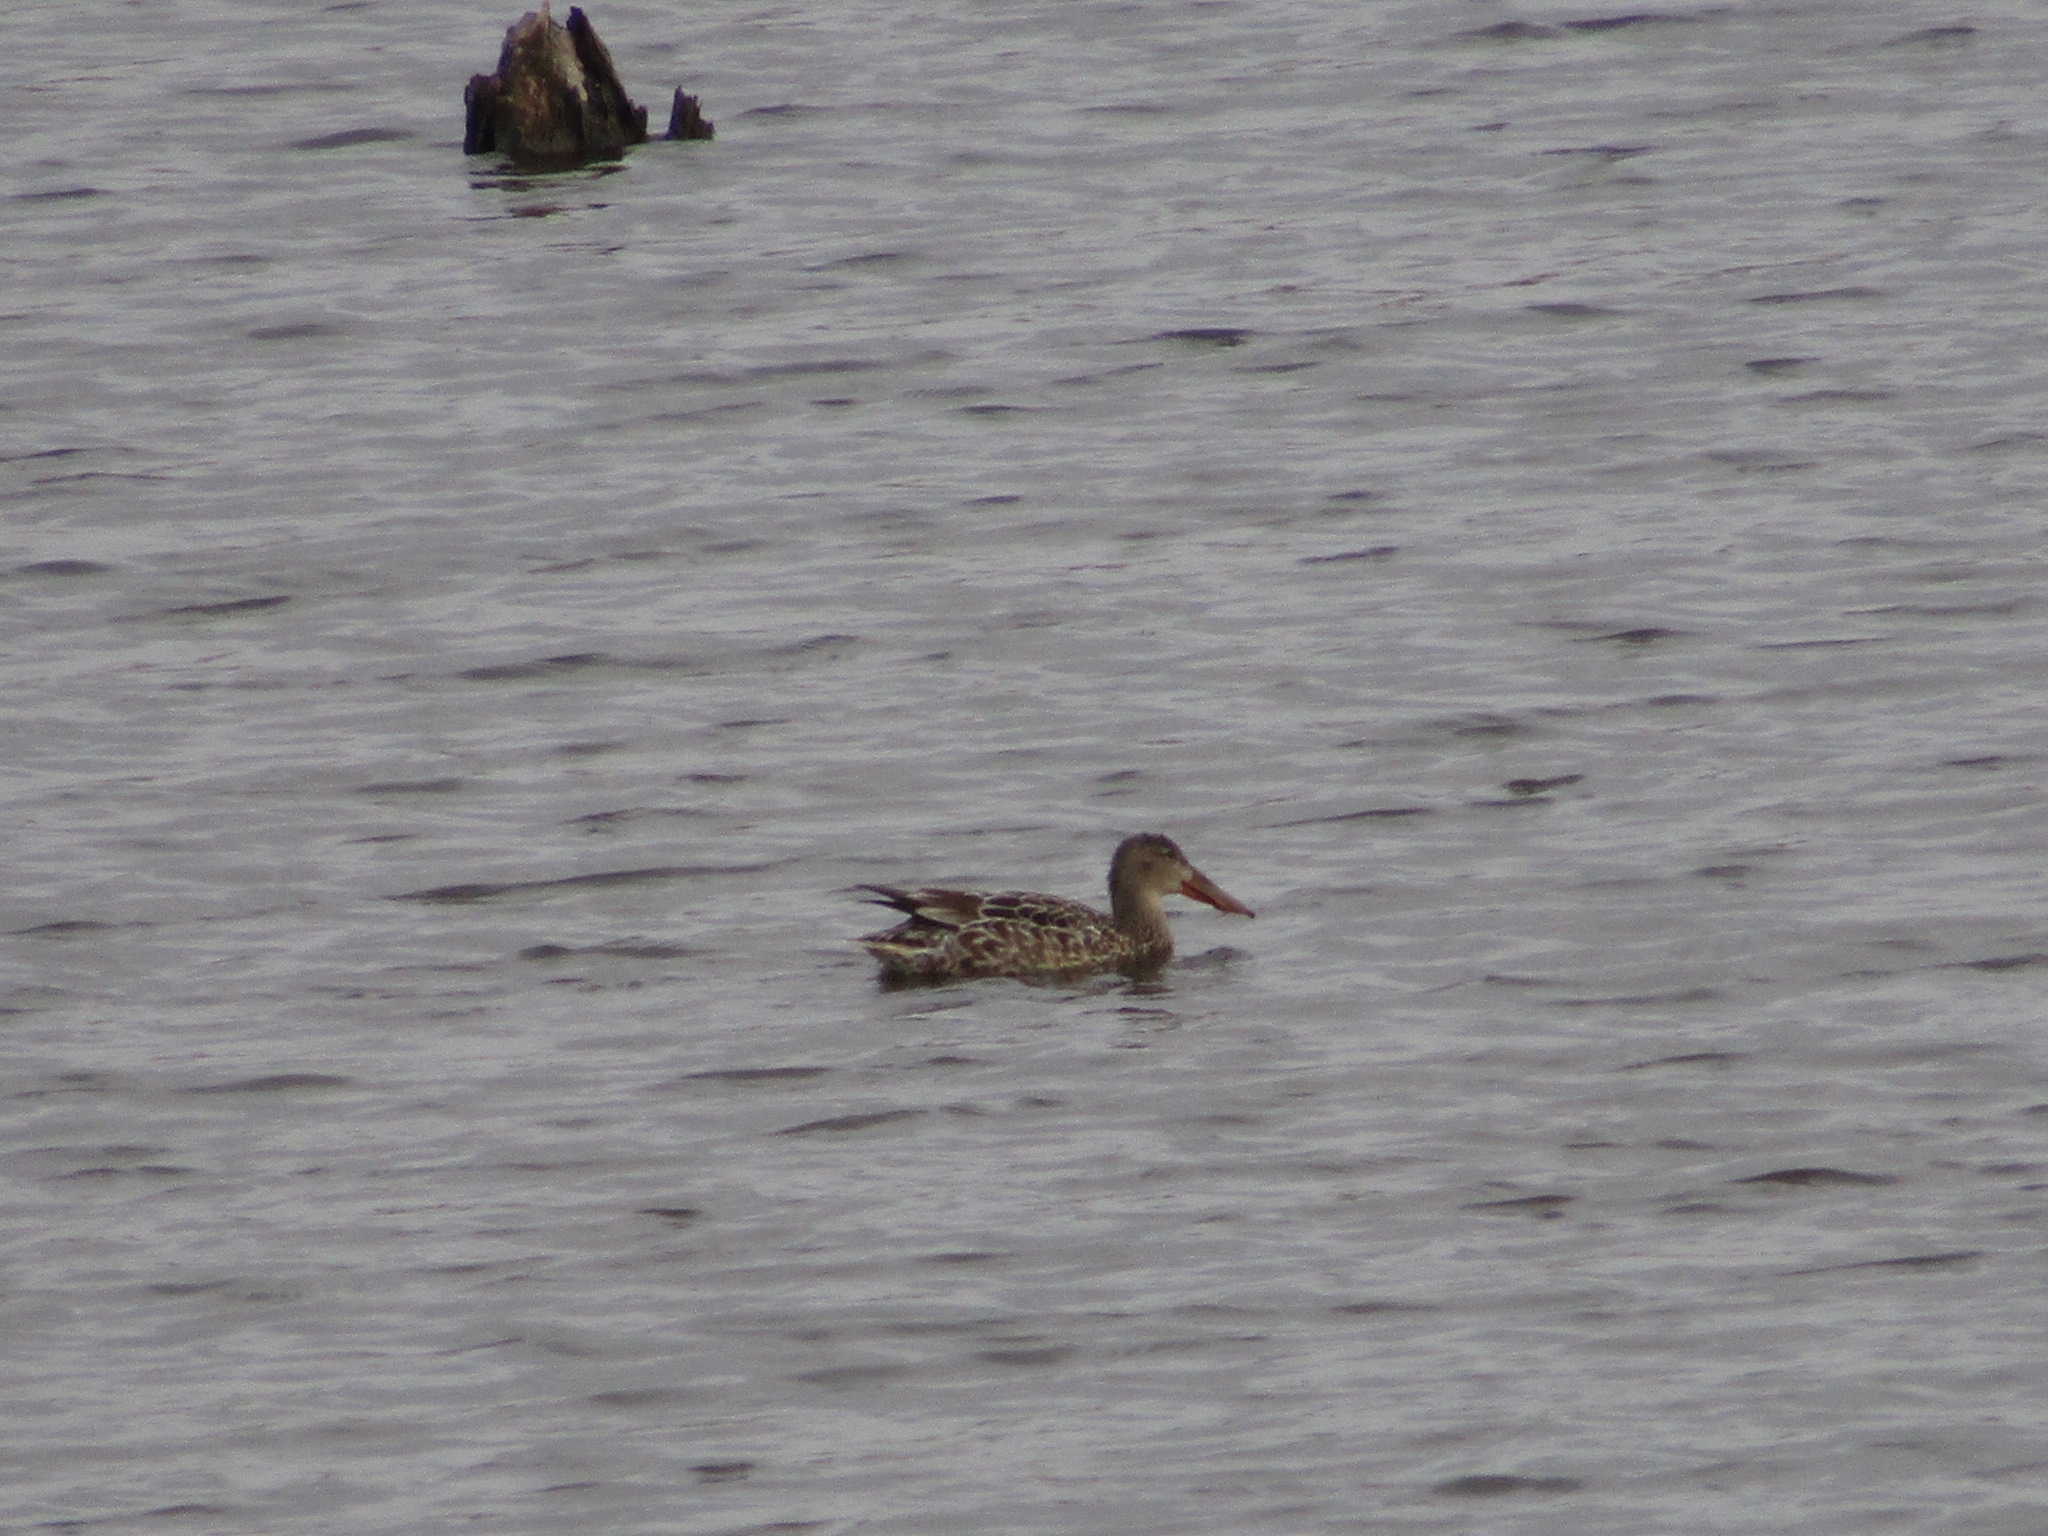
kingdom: Animalia
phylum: Chordata
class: Aves
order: Anseriformes
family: Anatidae
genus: Spatula
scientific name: Spatula clypeata
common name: Northern shoveler
